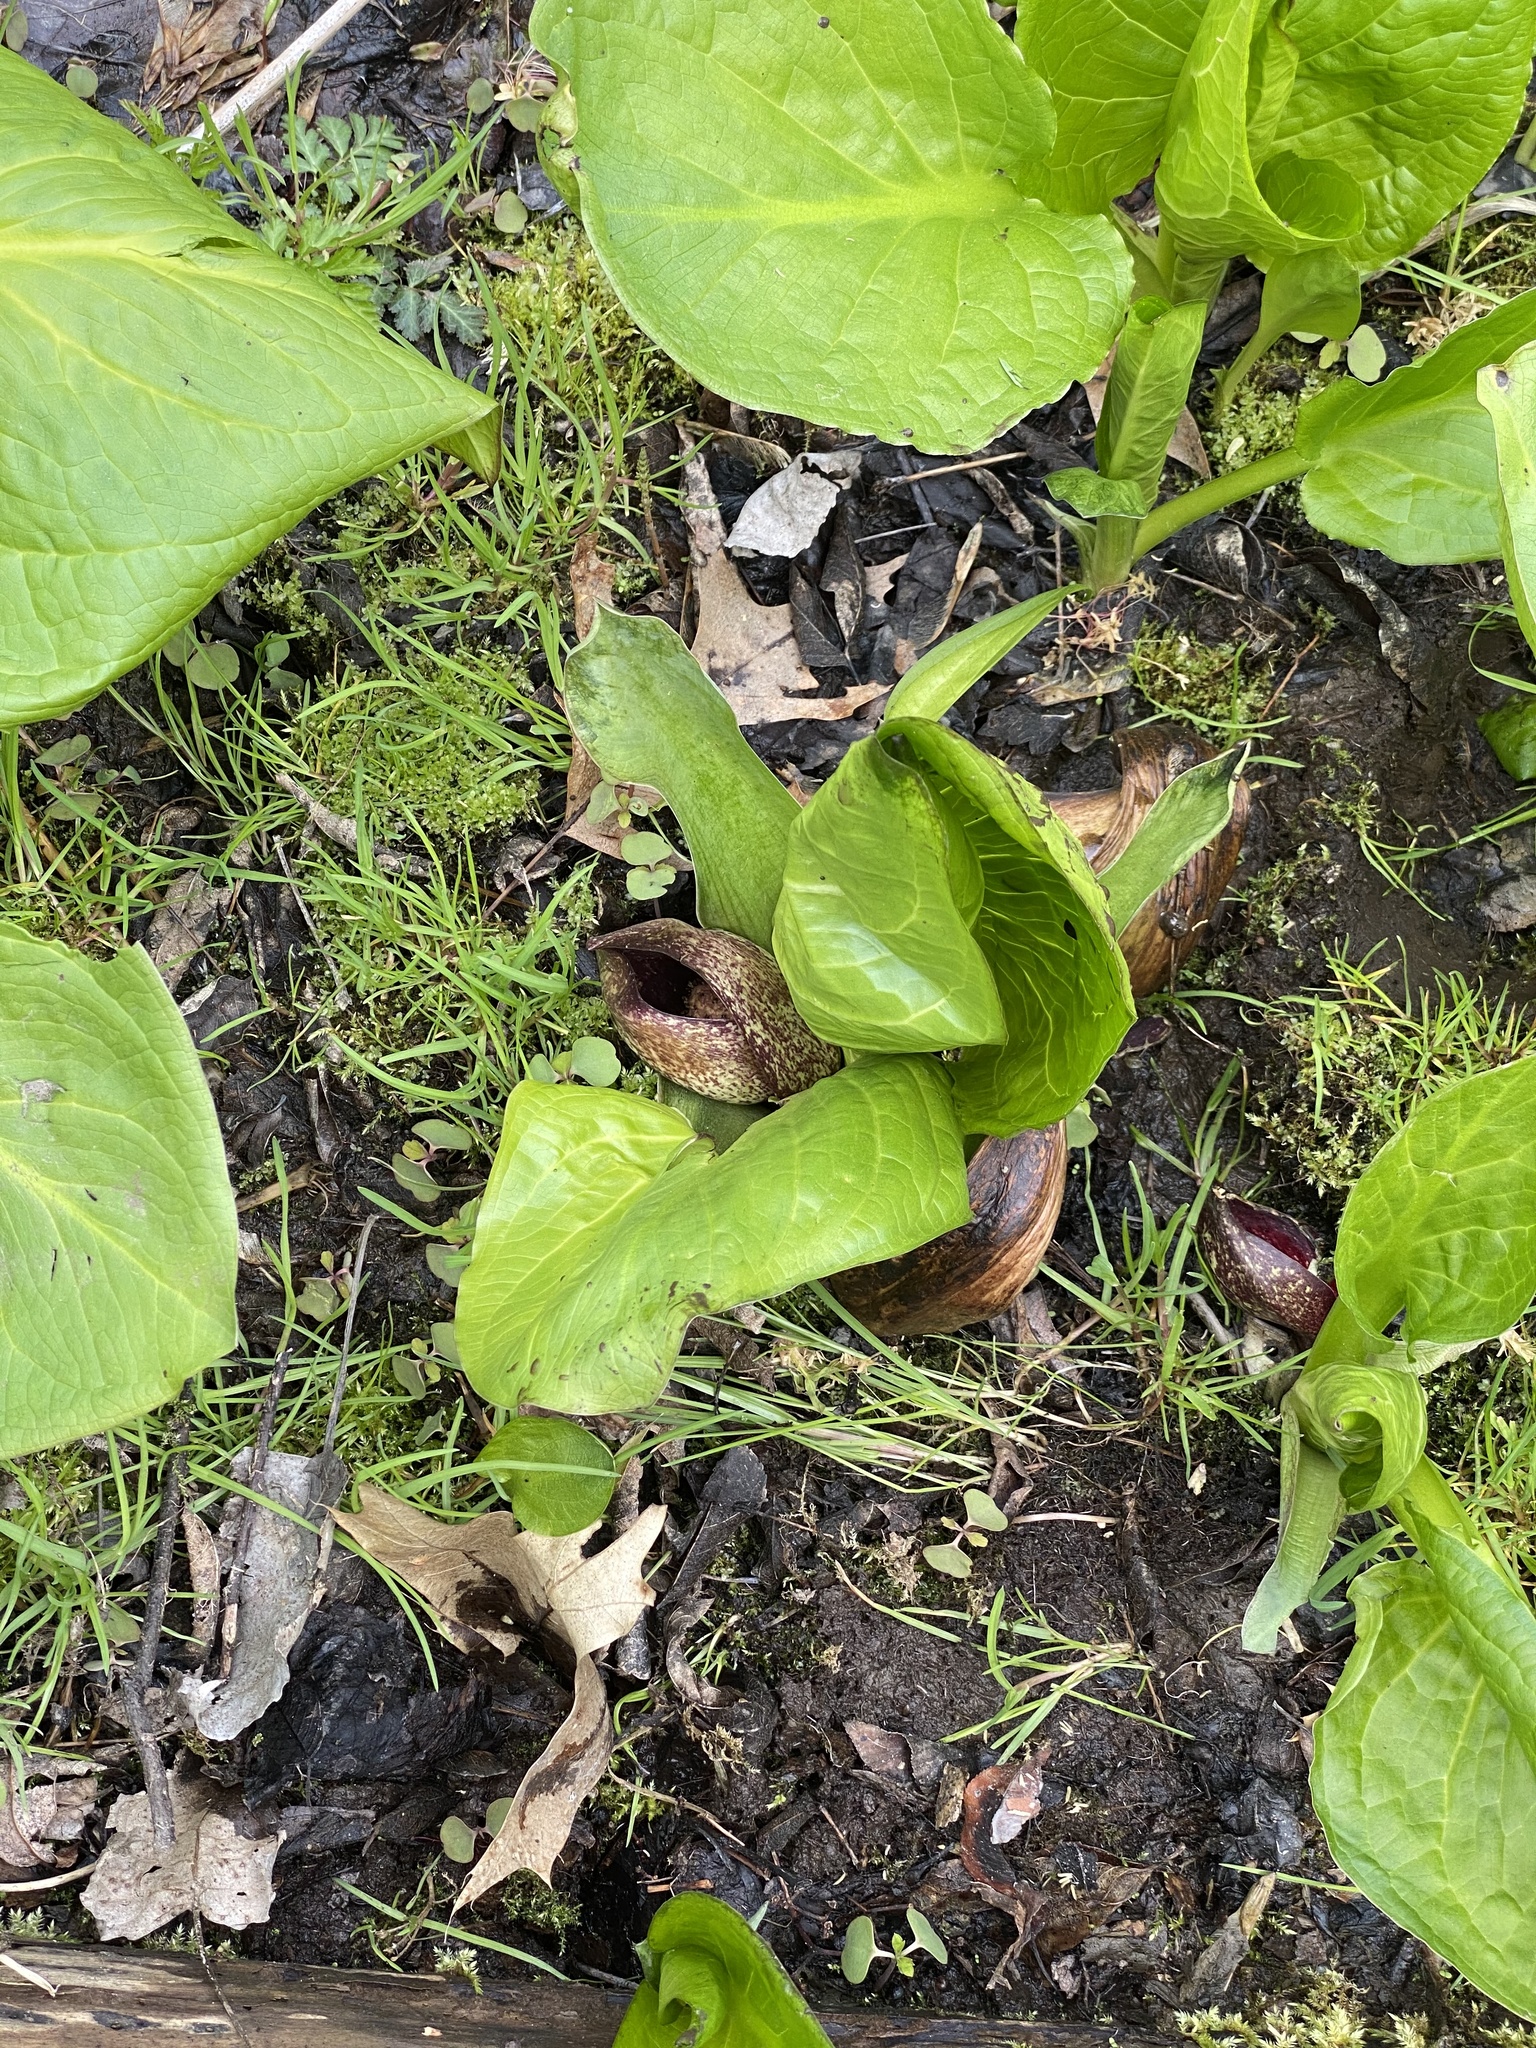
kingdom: Plantae
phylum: Tracheophyta
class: Liliopsida
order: Alismatales
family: Araceae
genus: Symplocarpus
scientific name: Symplocarpus foetidus
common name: Eastern skunk cabbage
